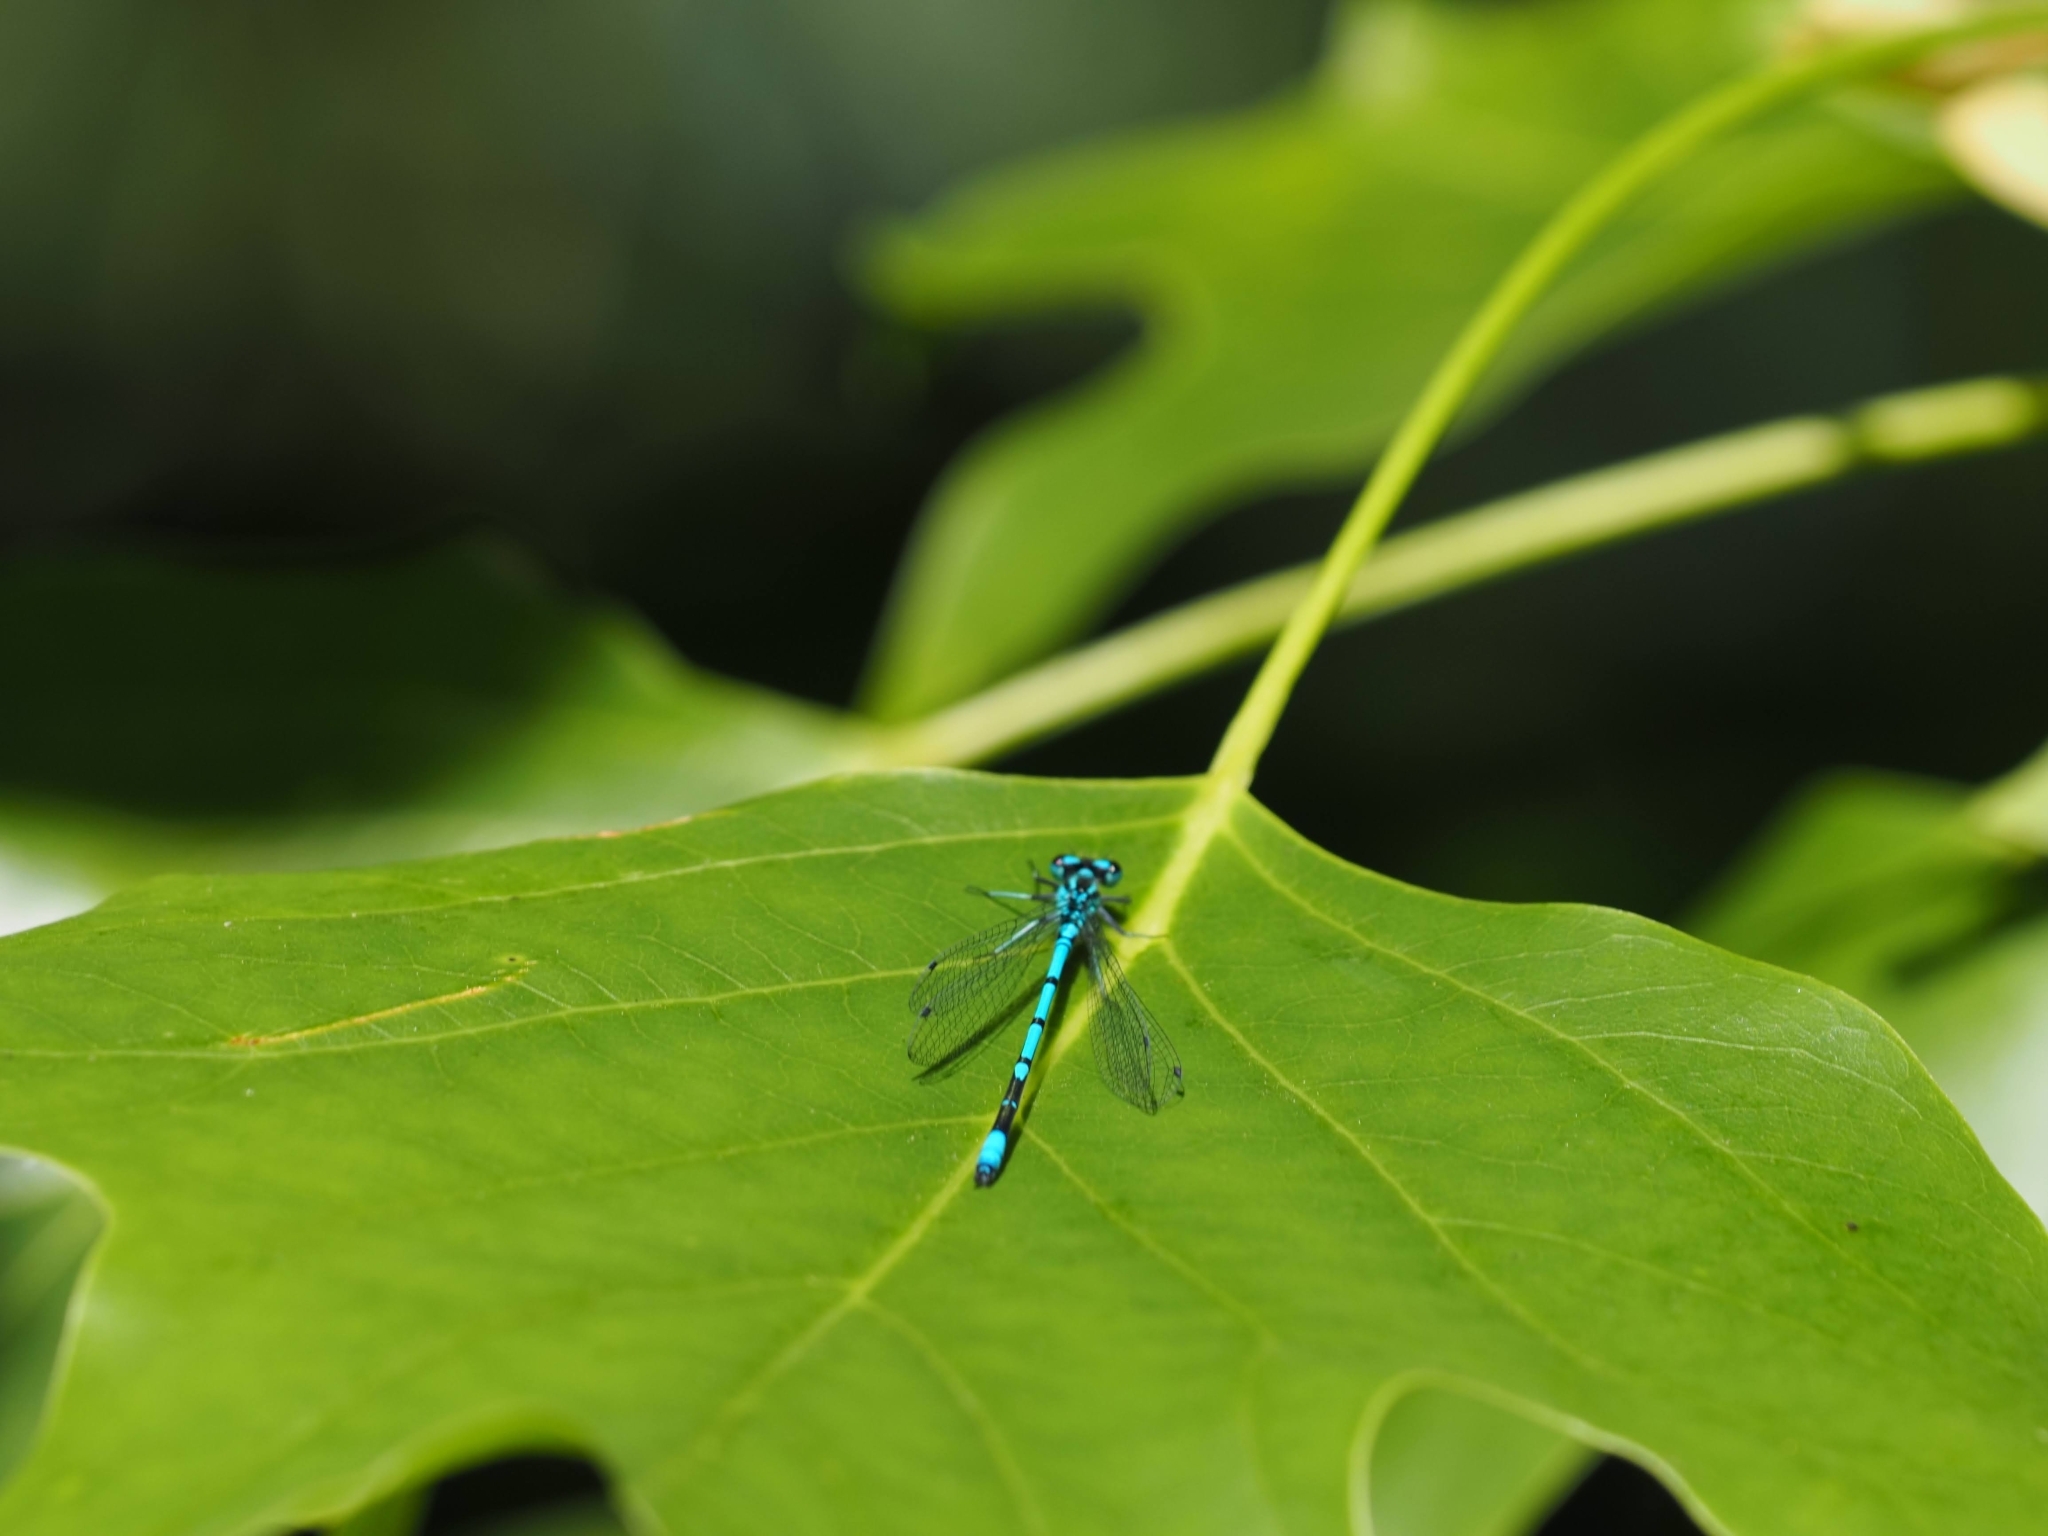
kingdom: Animalia
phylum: Arthropoda
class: Insecta
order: Odonata
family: Coenagrionidae
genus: Coenagrion
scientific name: Coenagrion puella
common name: Azure damselfly
